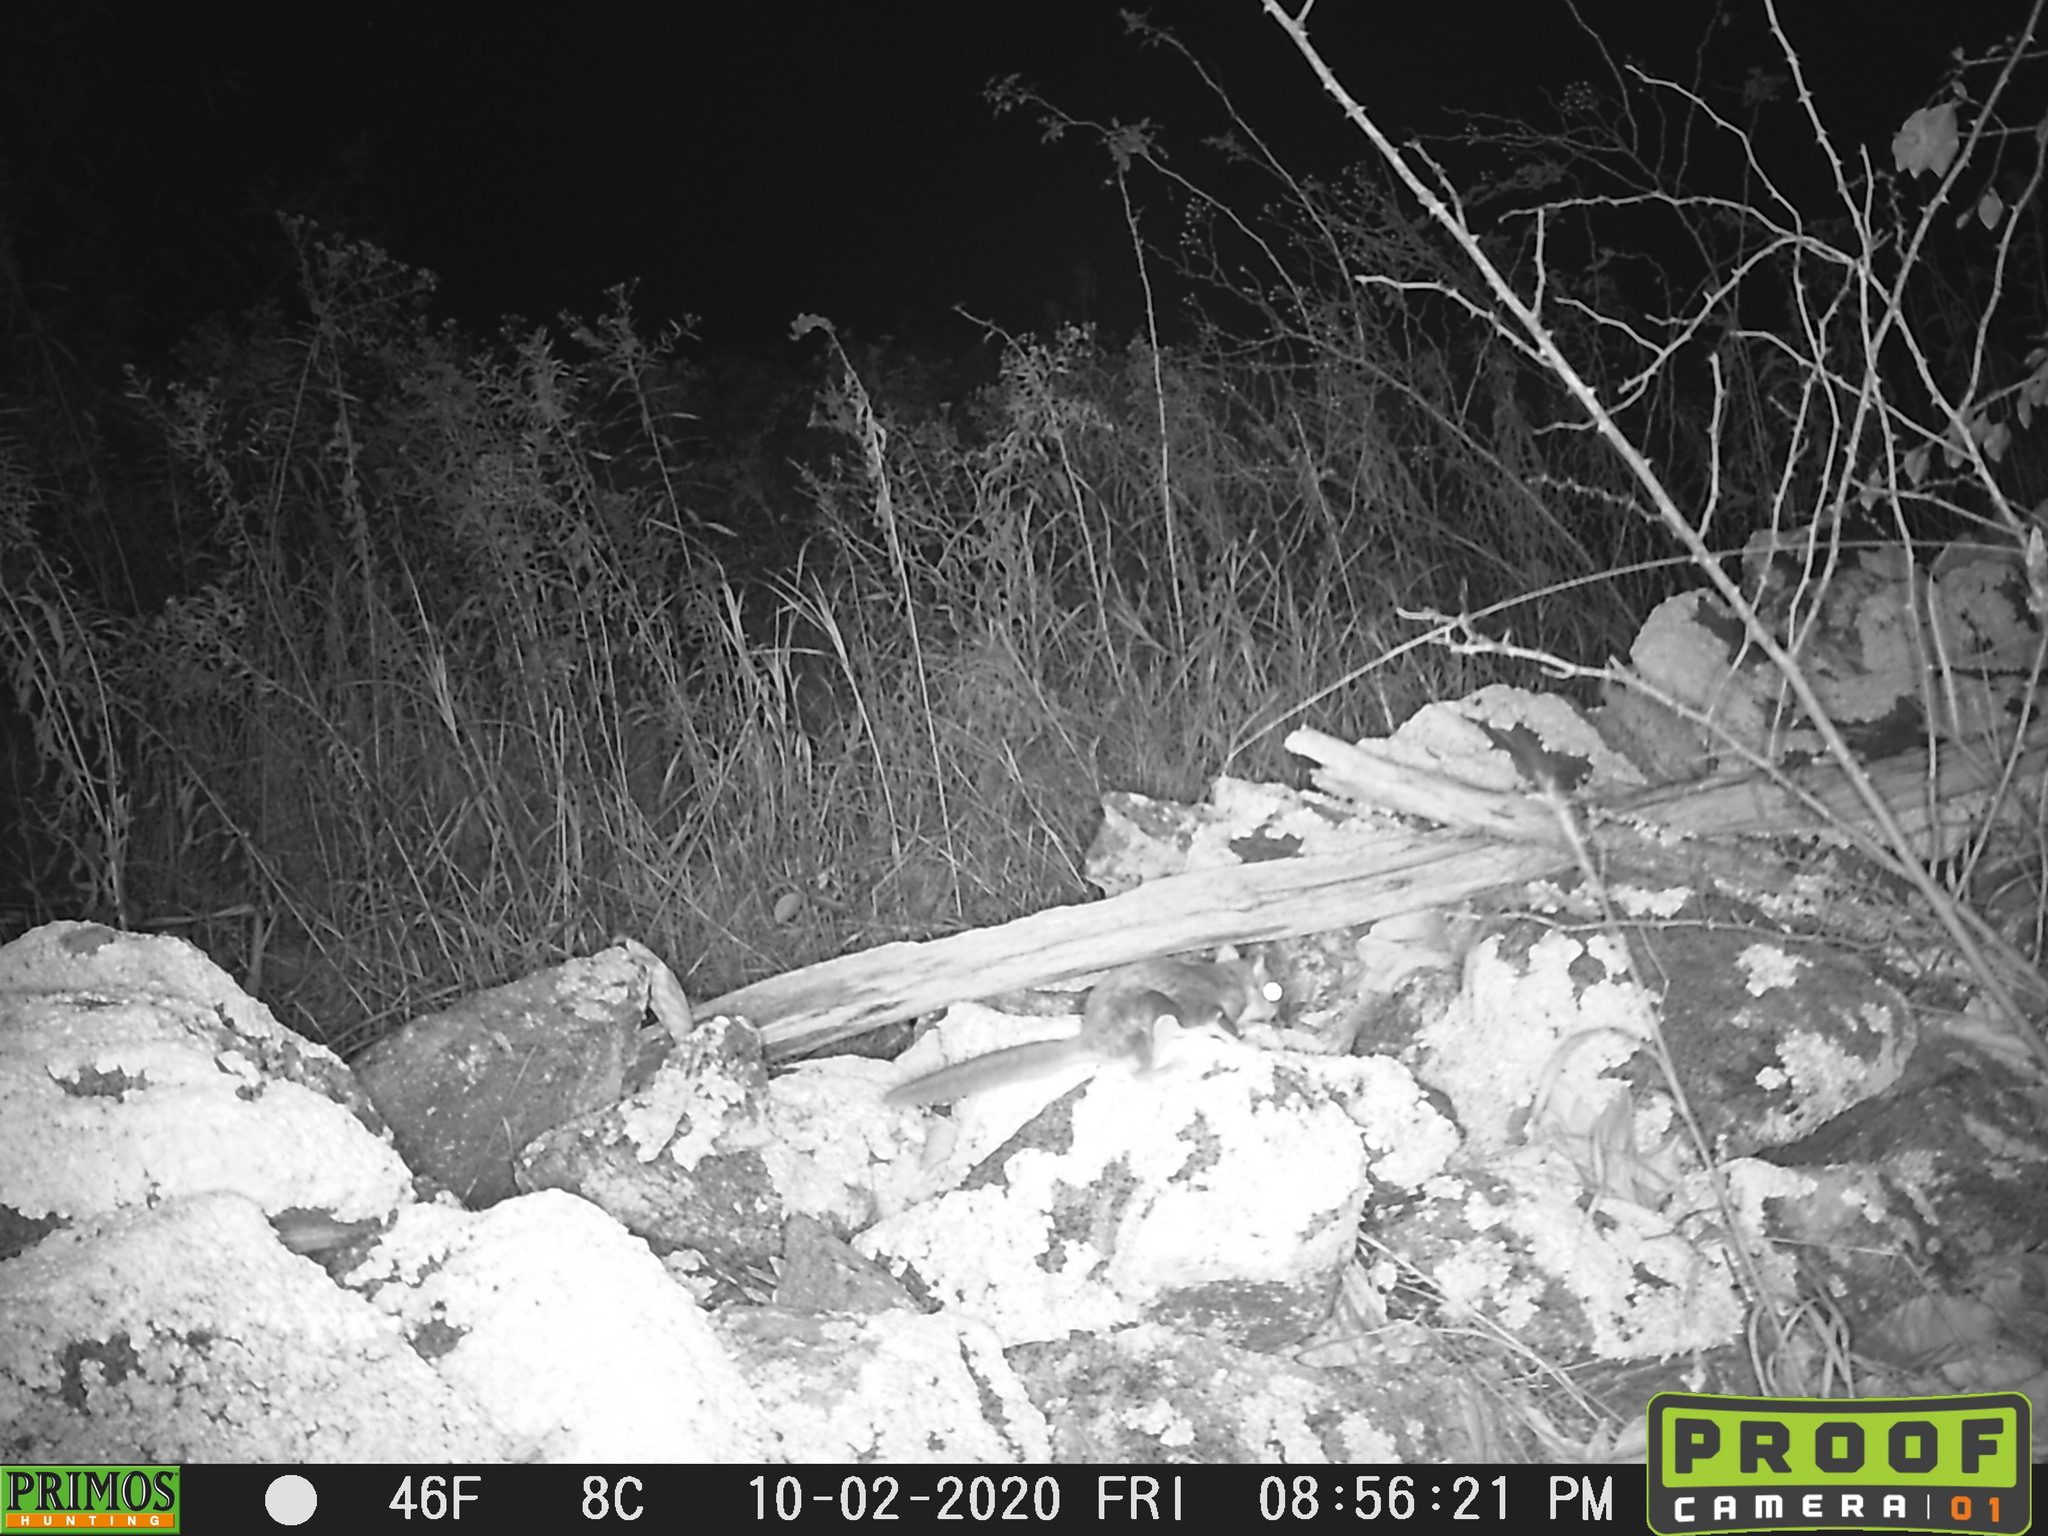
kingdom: Animalia
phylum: Chordata
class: Mammalia
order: Rodentia
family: Sciuridae
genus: Glaucomys
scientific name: Glaucomys volans
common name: Southern flying squirrel
